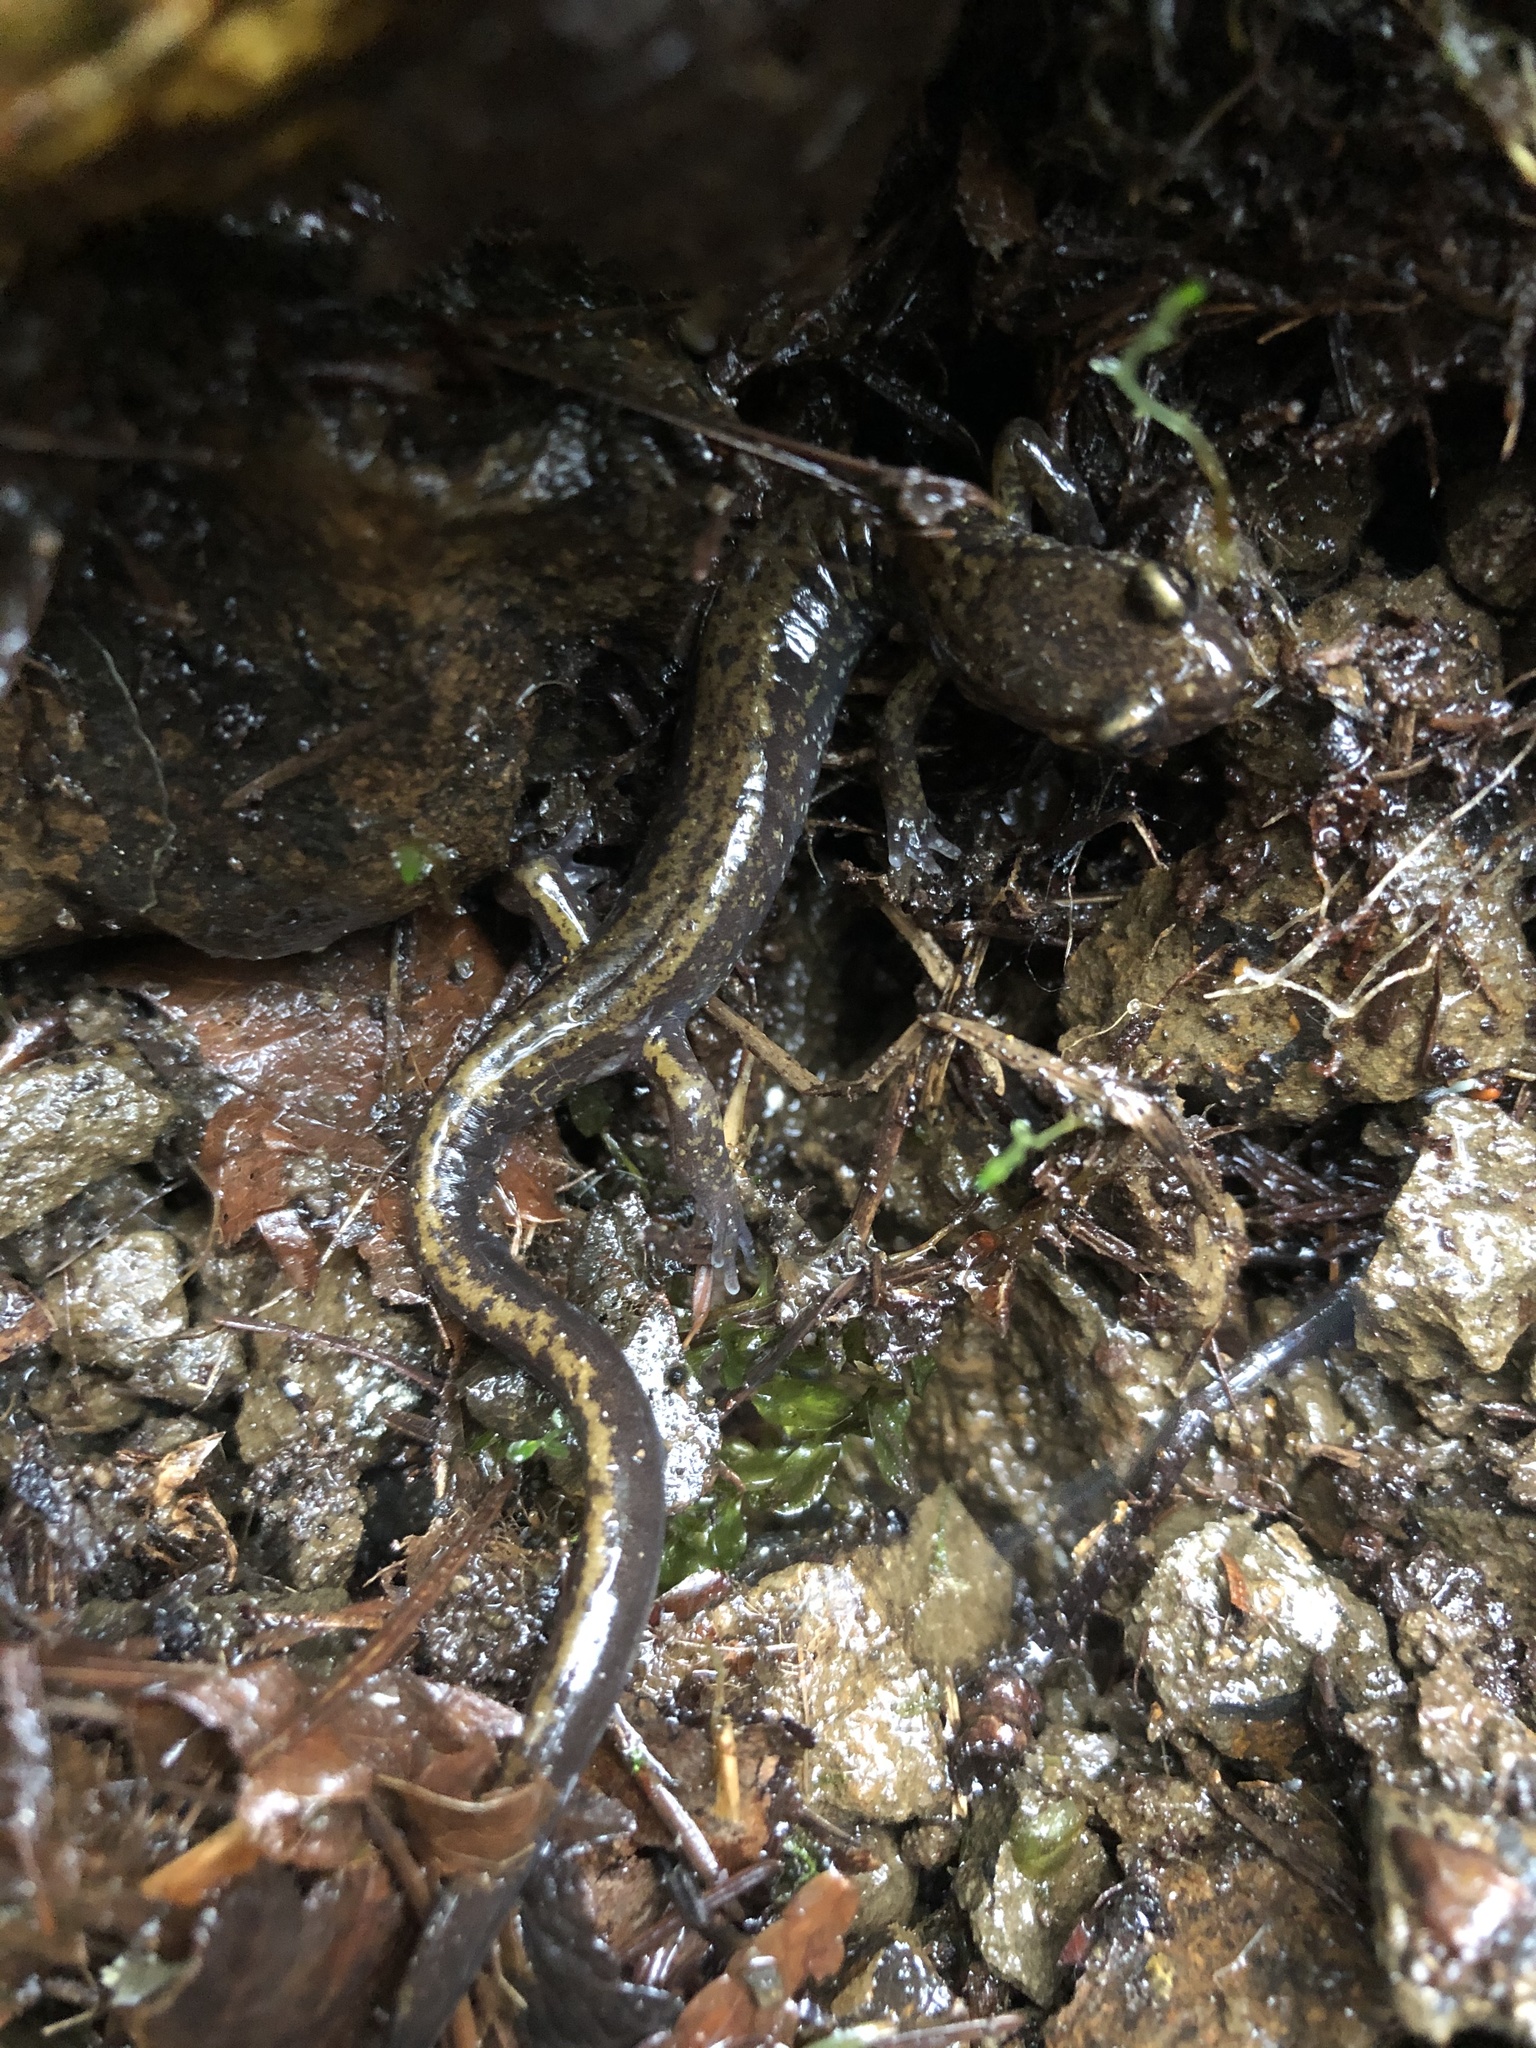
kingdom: Animalia
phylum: Chordata
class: Amphibia
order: Caudata
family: Plethodontidae
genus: Plethodon
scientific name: Plethodon dunni
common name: Dunn's salamander
